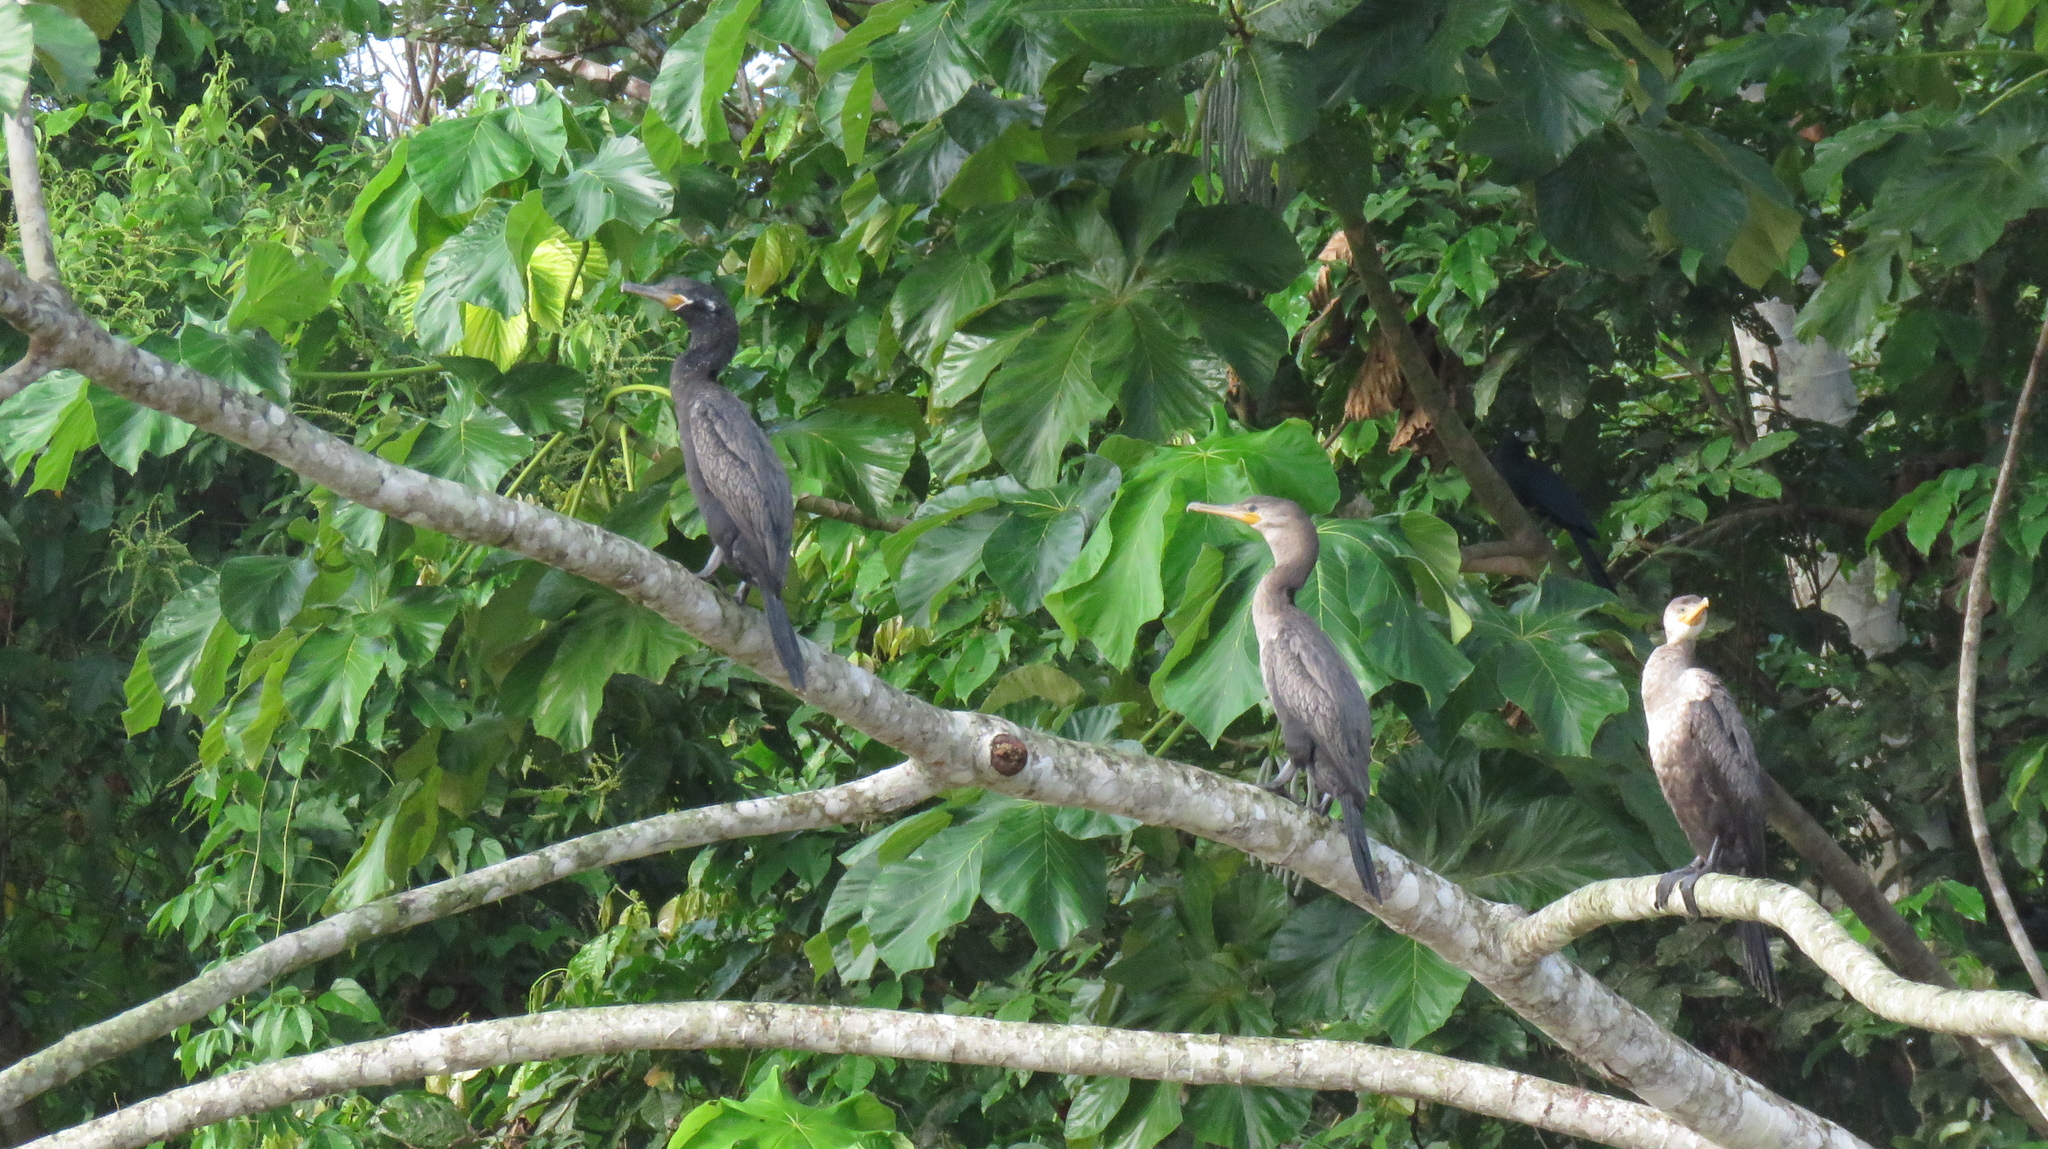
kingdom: Animalia
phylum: Chordata
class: Aves
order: Suliformes
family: Phalacrocoracidae
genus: Phalacrocorax
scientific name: Phalacrocorax brasilianus
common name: Neotropic cormorant
